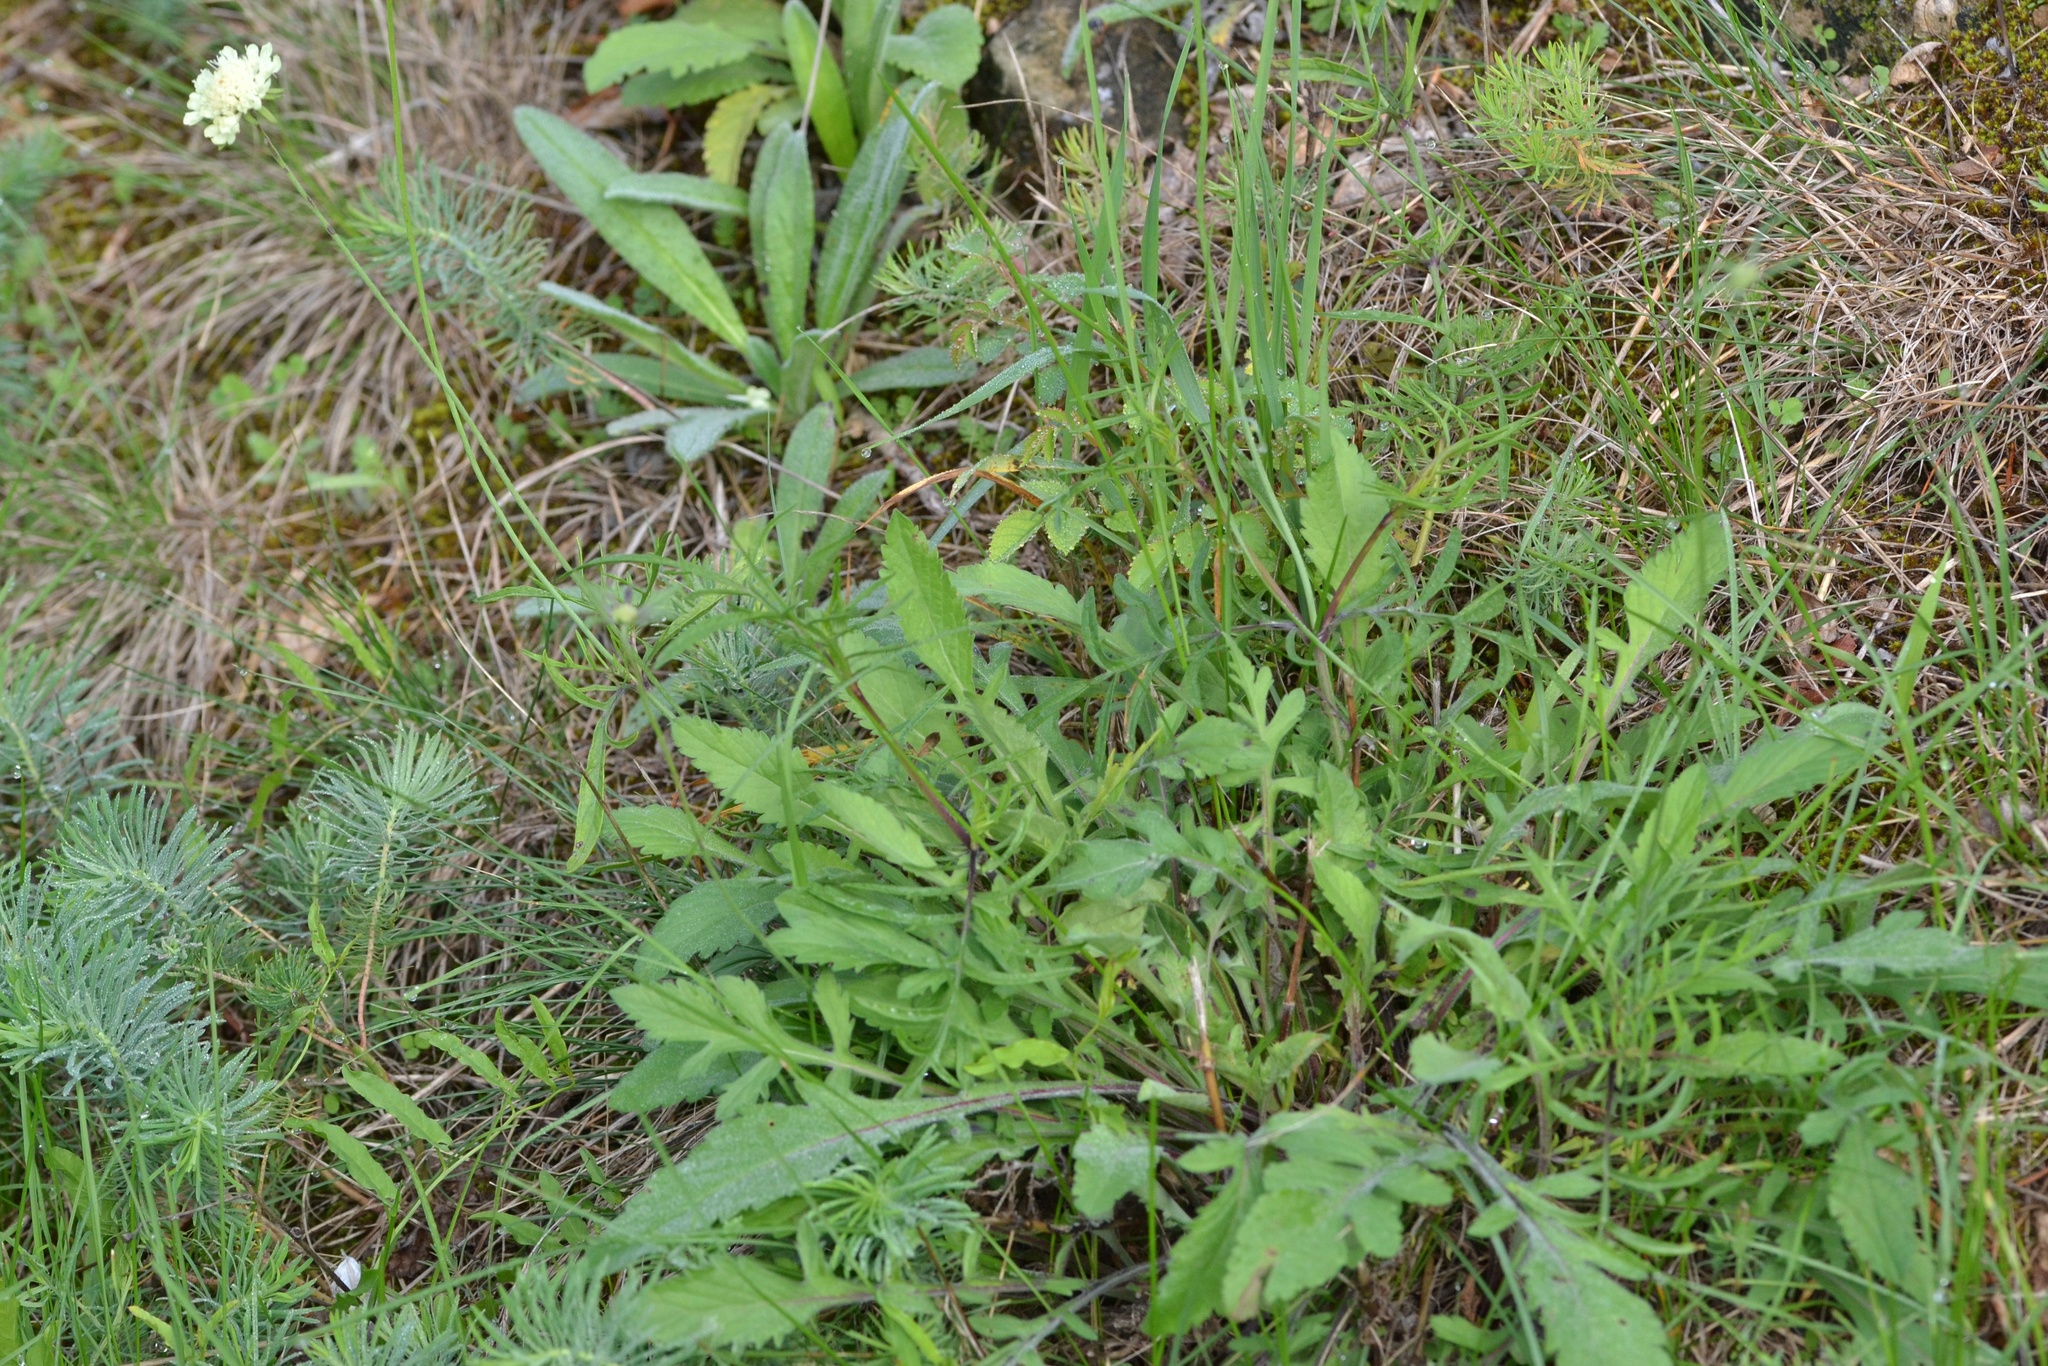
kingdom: Plantae
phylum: Tracheophyta
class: Magnoliopsida
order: Dipsacales
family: Caprifoliaceae
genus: Scabiosa
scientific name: Scabiosa ochroleuca
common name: Cream pincushions
